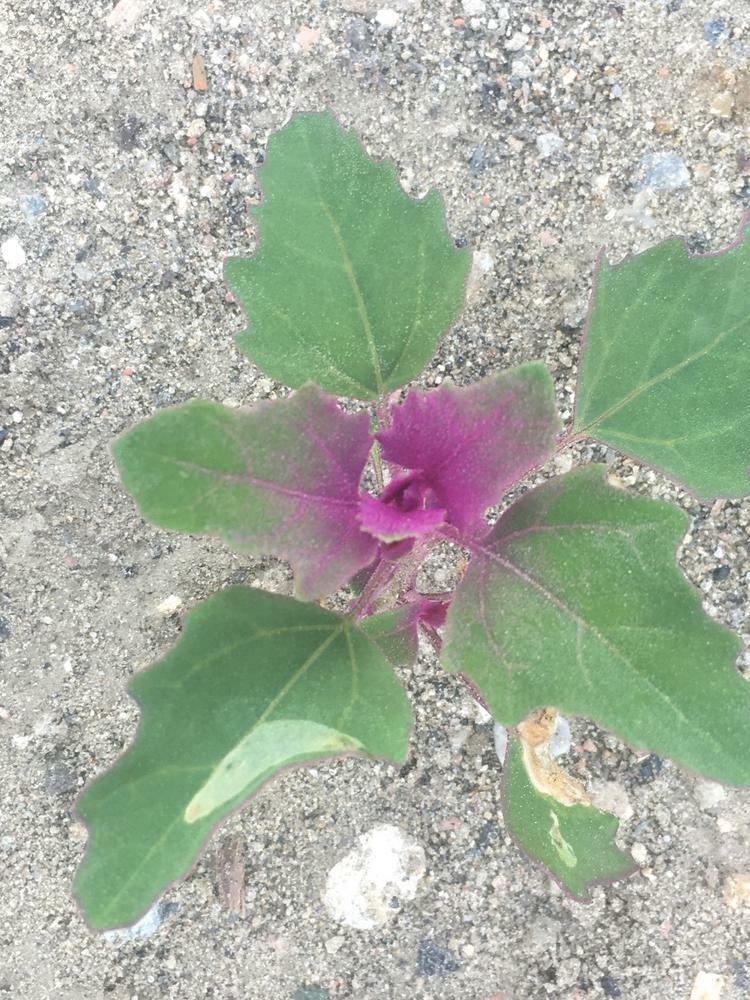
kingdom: Plantae
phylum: Tracheophyta
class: Magnoliopsida
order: Caryophyllales
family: Amaranthaceae
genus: Chenopodium
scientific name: Chenopodium reynieri
